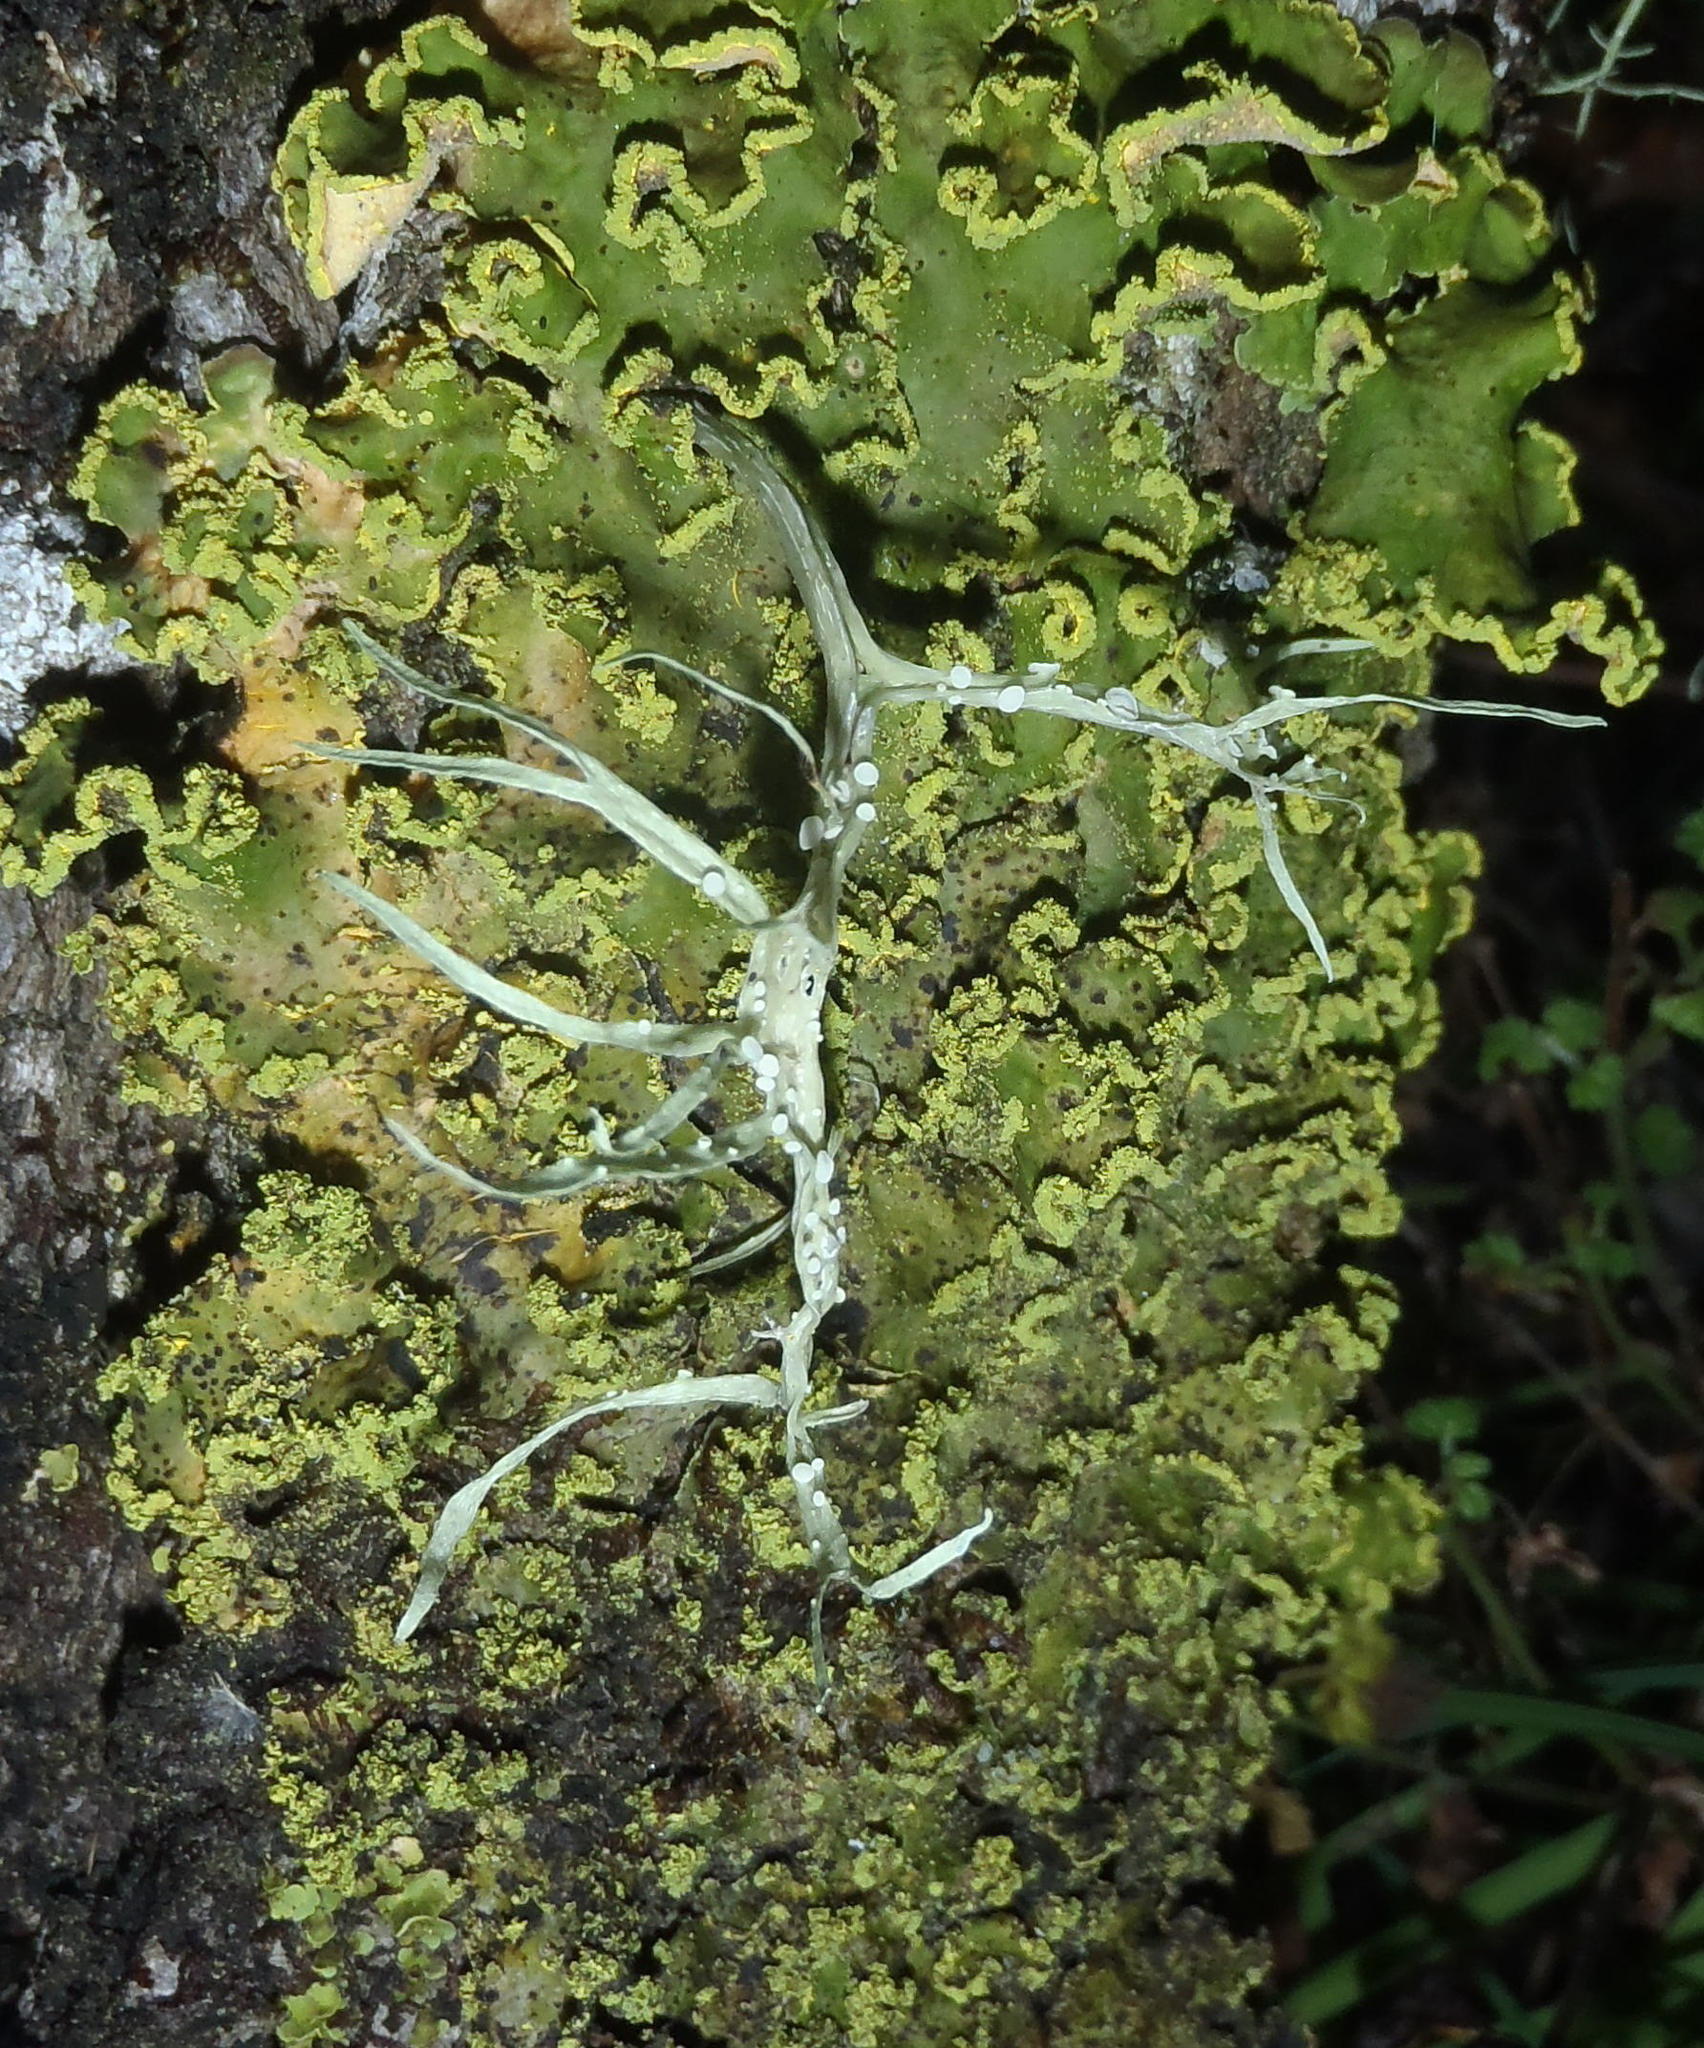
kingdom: Fungi
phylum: Ascomycota
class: Lecanoromycetes
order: Lecanorales
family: Ramalinaceae
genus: Ramalina
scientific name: Ramalina celastri
